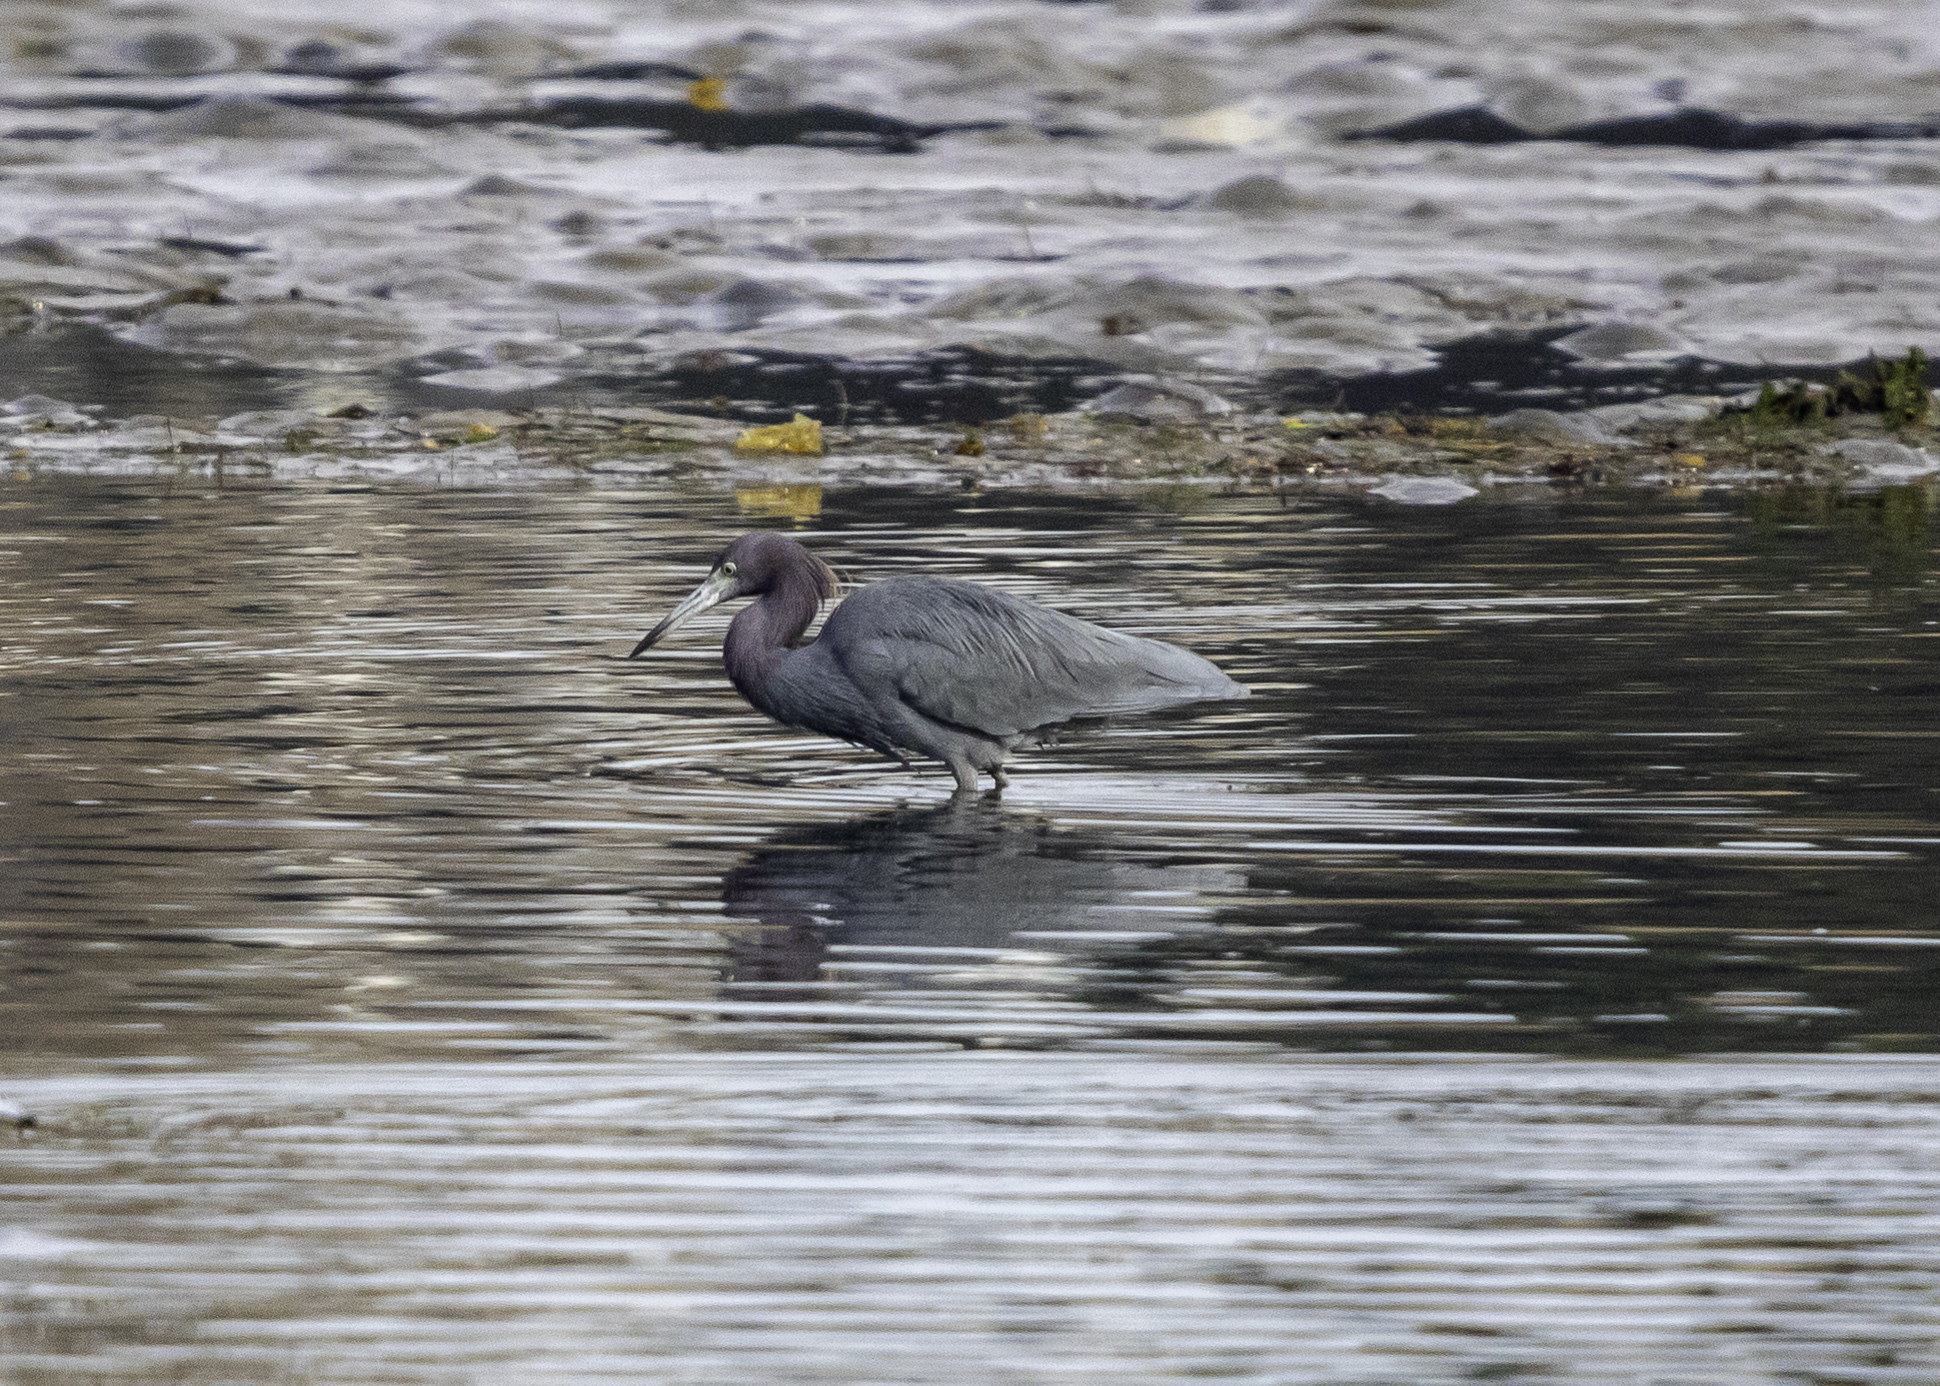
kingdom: Animalia
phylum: Chordata
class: Aves
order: Pelecaniformes
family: Ardeidae
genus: Egretta
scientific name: Egretta caerulea
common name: Little blue heron
